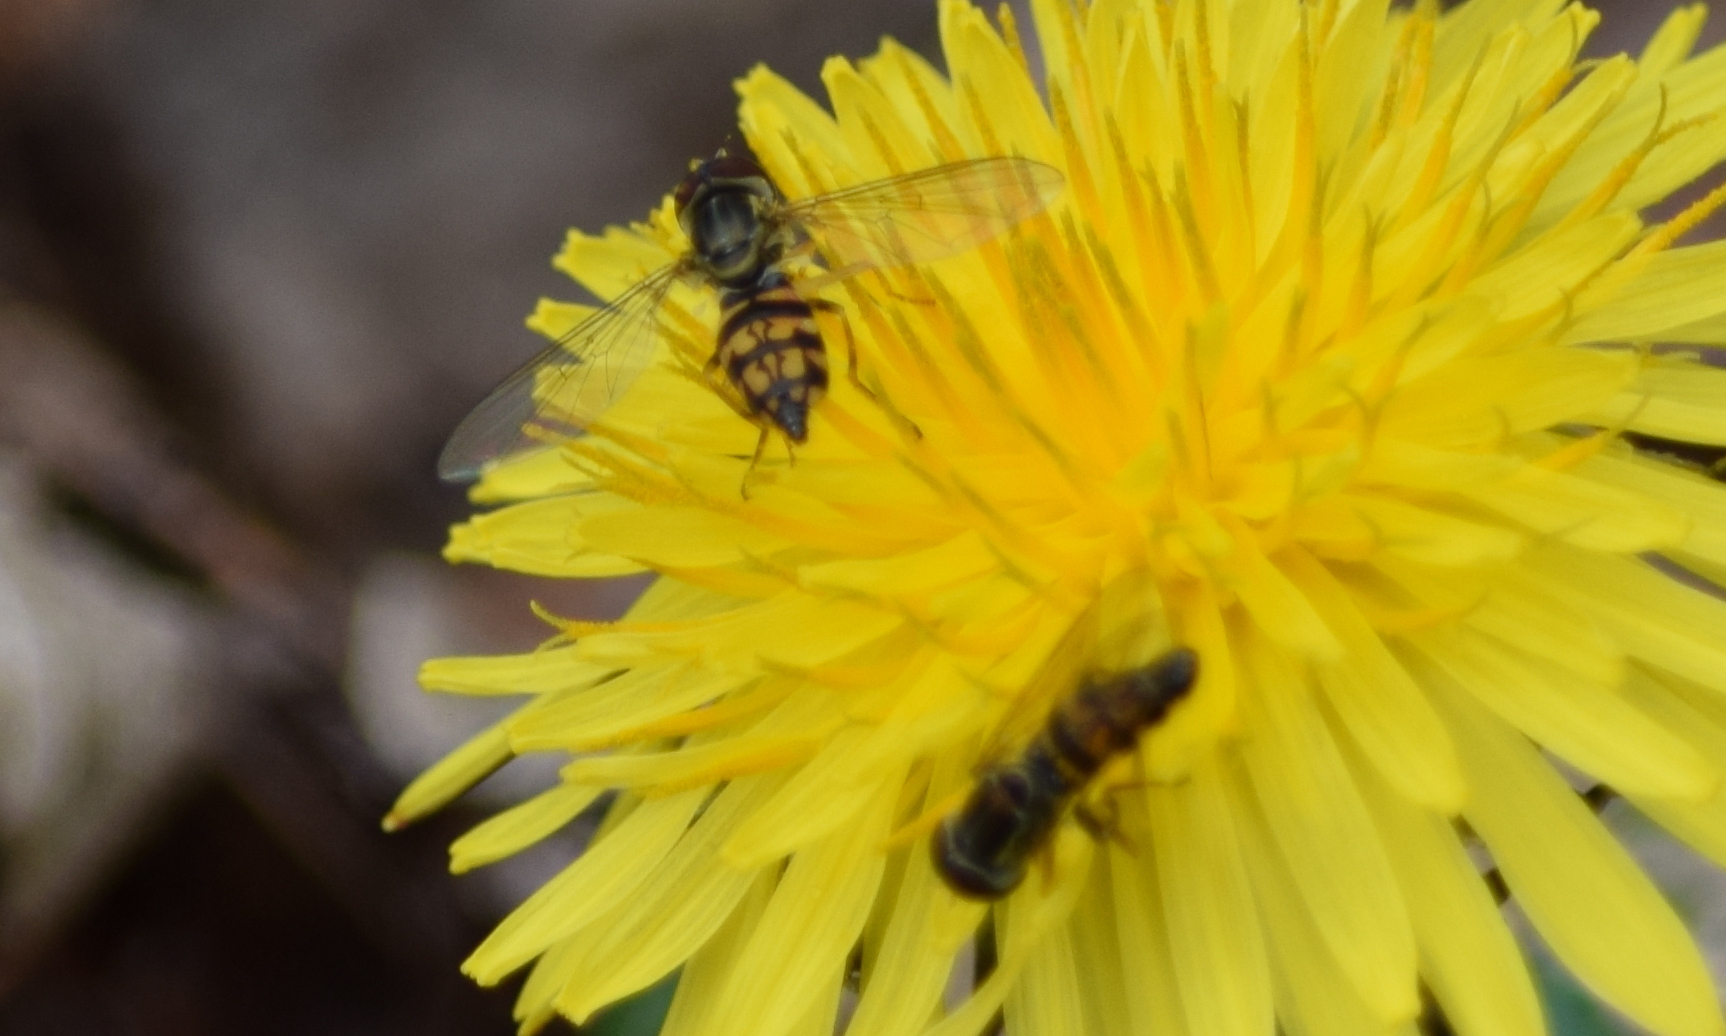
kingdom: Animalia
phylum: Arthropoda
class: Insecta
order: Diptera
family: Syrphidae
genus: Toxomerus
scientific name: Toxomerus geminatus
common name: Eastern calligrapher
